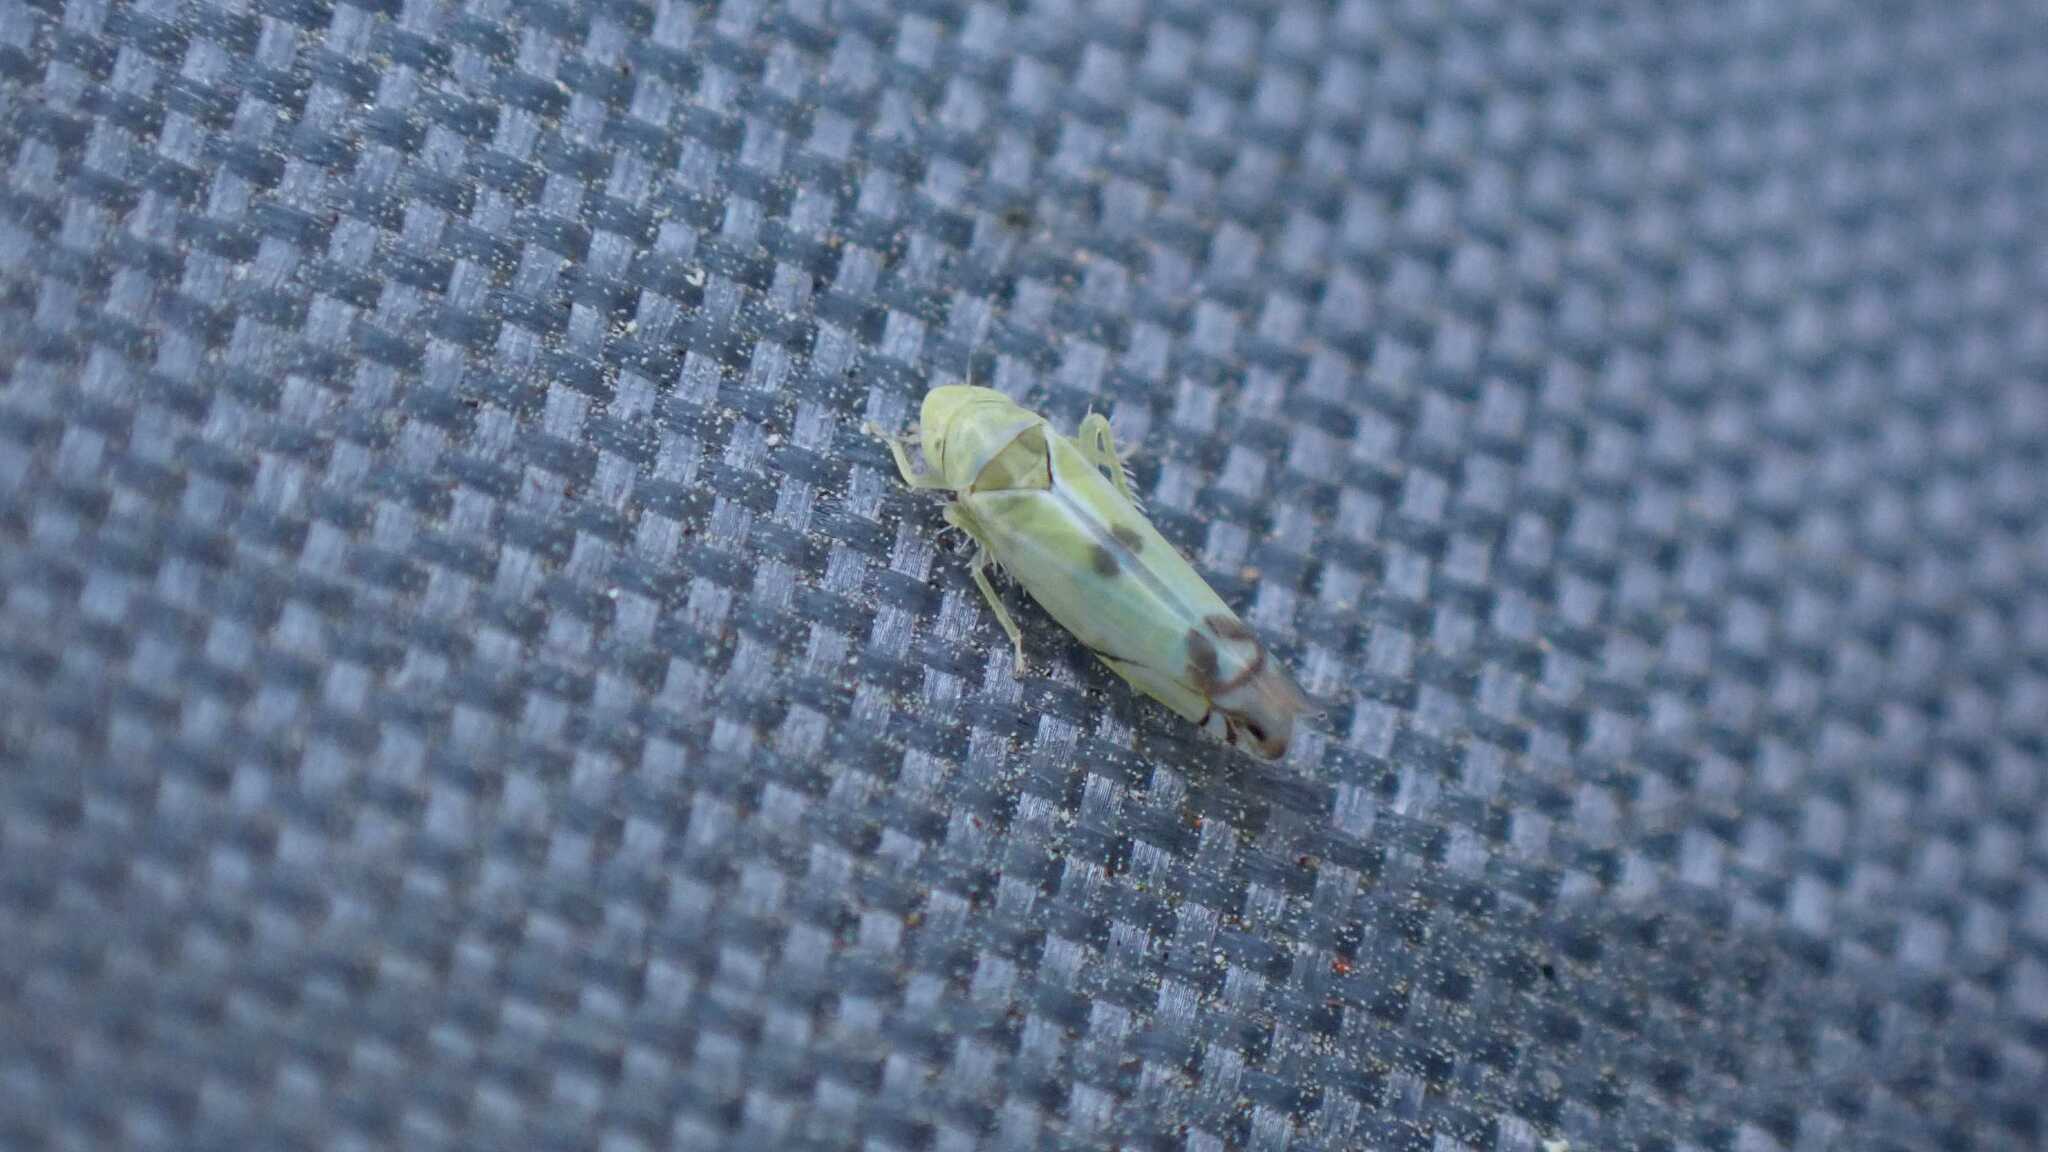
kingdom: Animalia
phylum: Arthropoda
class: Insecta
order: Hemiptera
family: Cicadellidae
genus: Zyginella
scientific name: Zyginella pulchra
